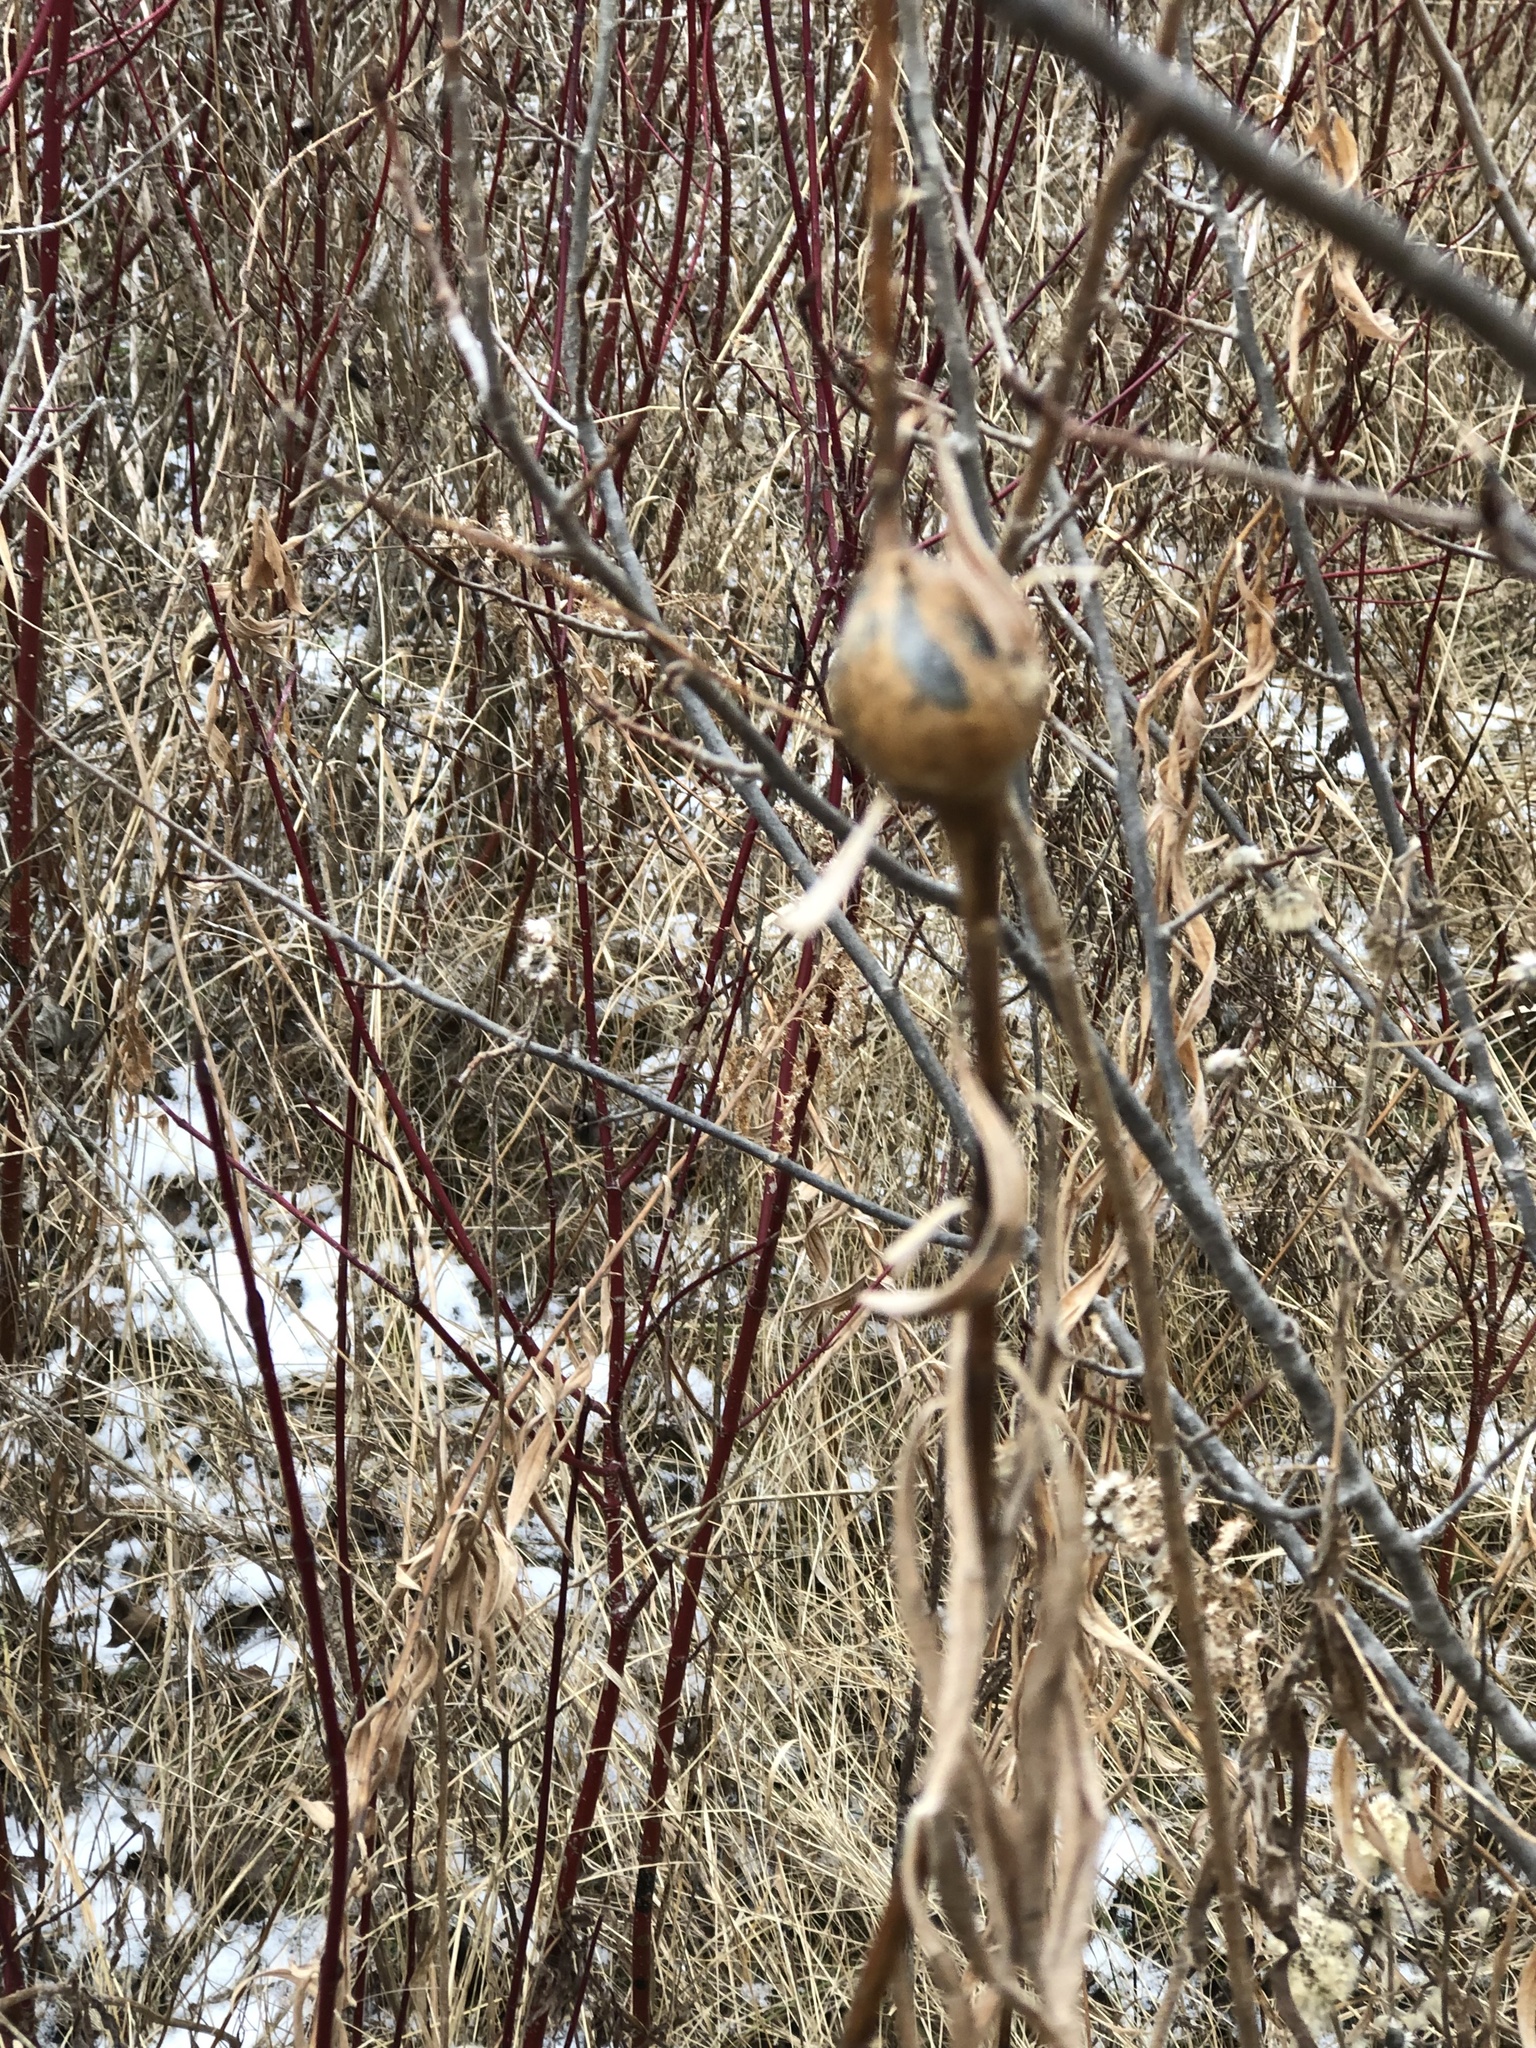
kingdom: Animalia
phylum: Arthropoda
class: Insecta
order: Diptera
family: Tephritidae
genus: Eurosta
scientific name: Eurosta solidaginis
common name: Goldenrod gall fly
